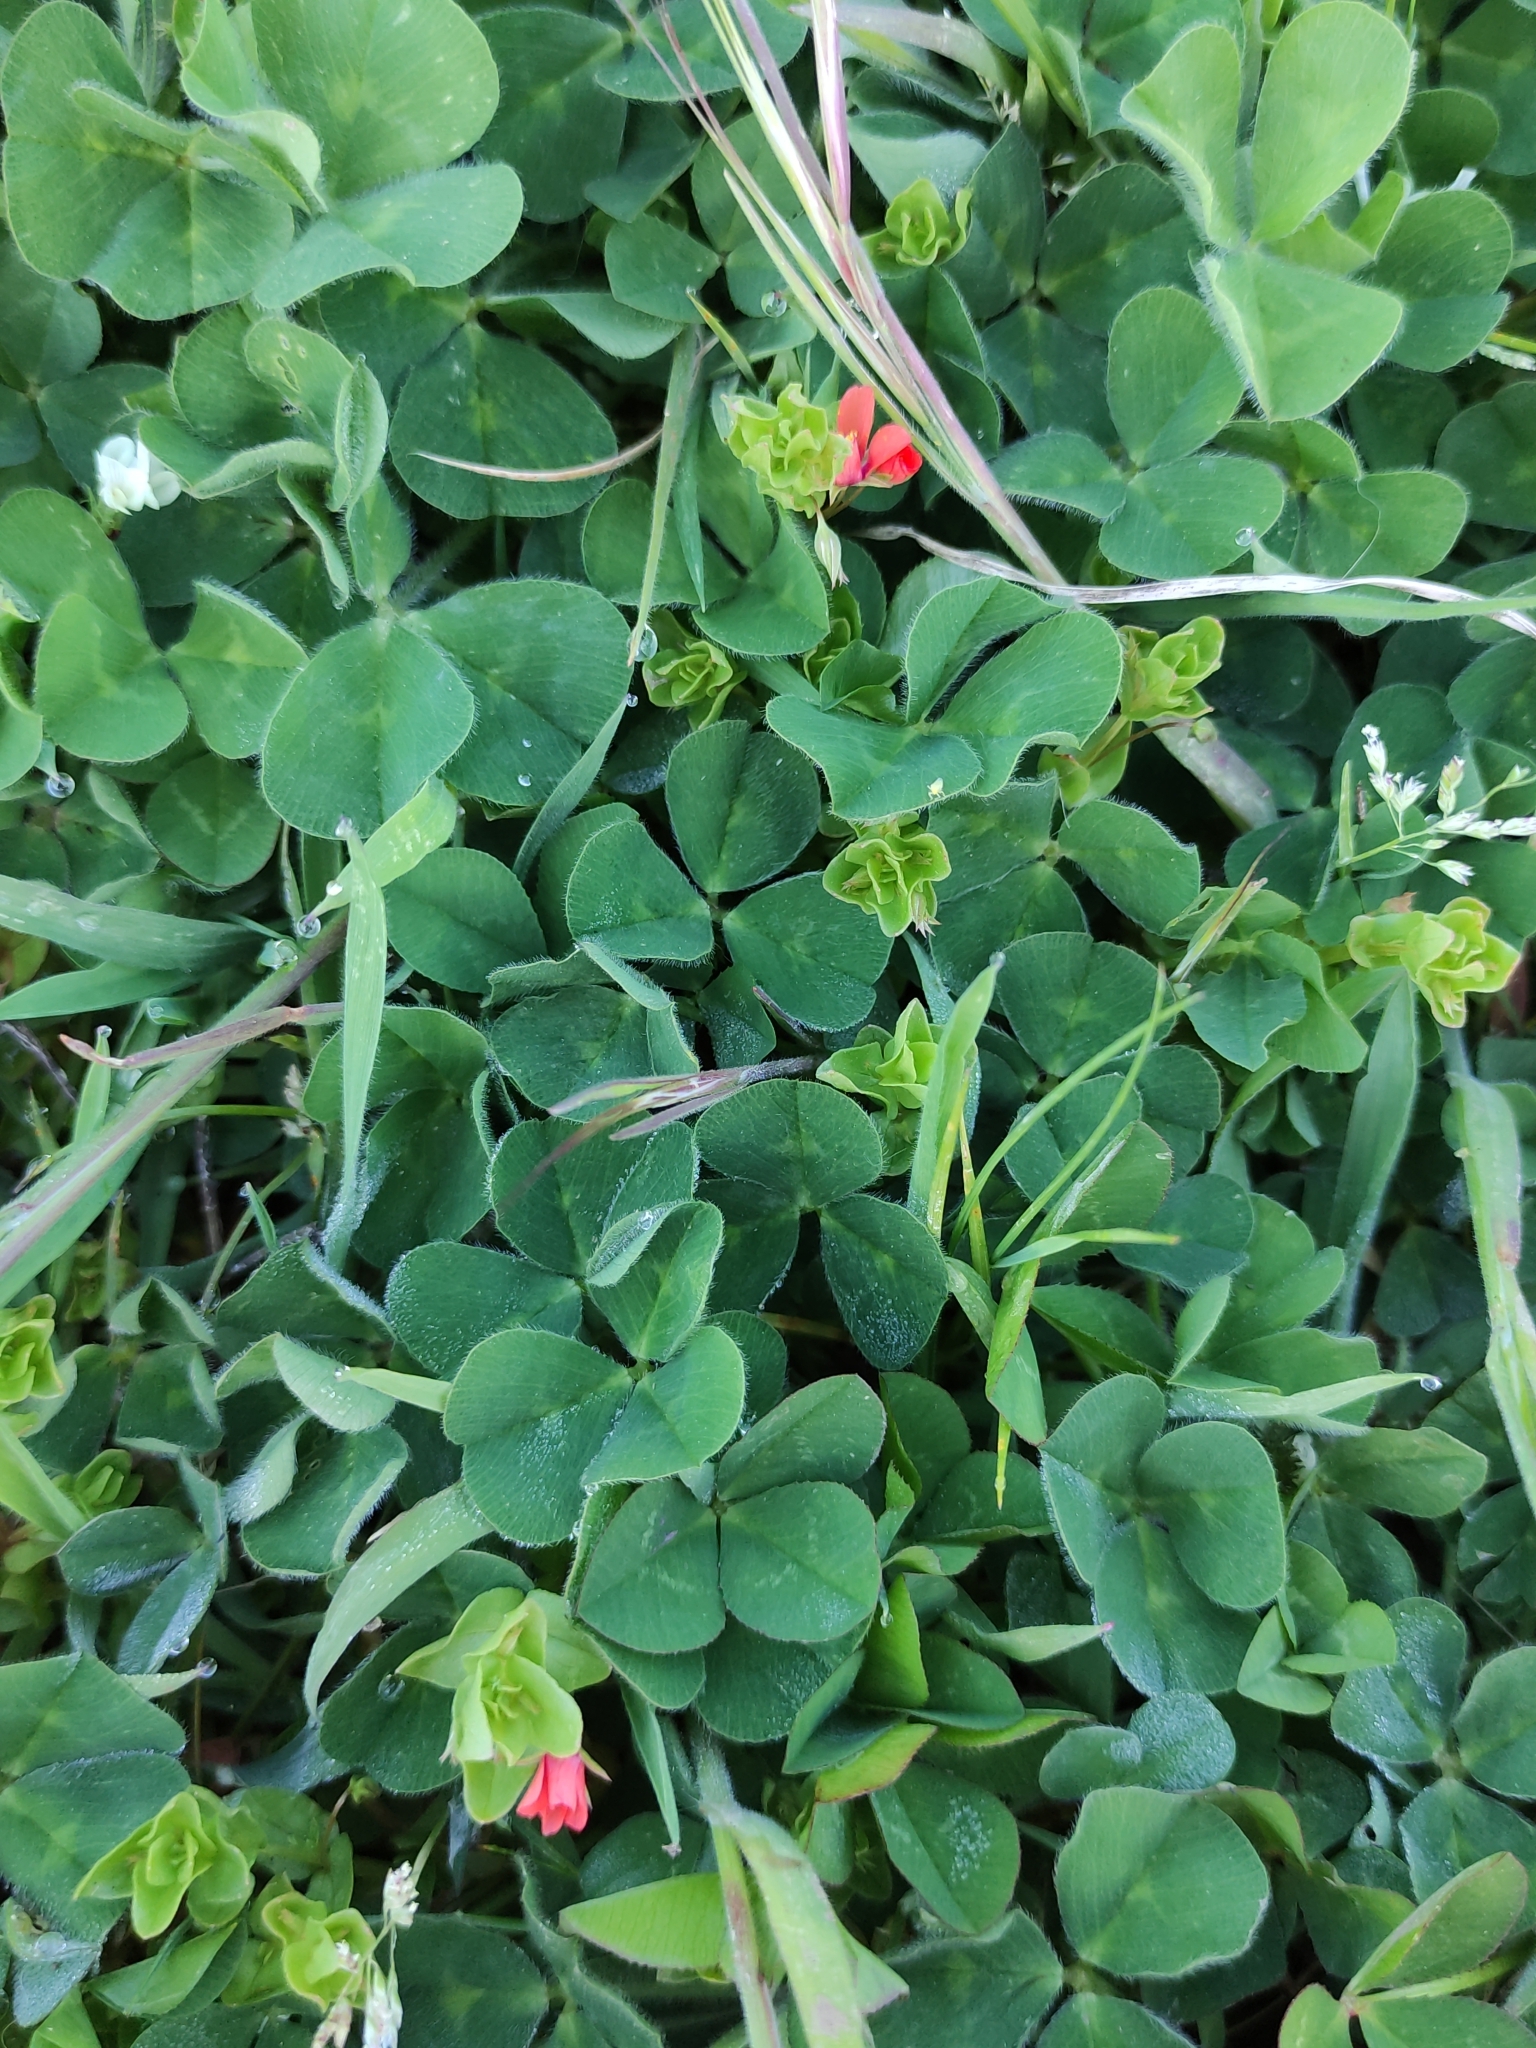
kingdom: Plantae
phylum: Tracheophyta
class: Magnoliopsida
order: Ericales
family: Primulaceae
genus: Lysimachia
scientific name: Lysimachia arvensis
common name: Scarlet pimpernel
